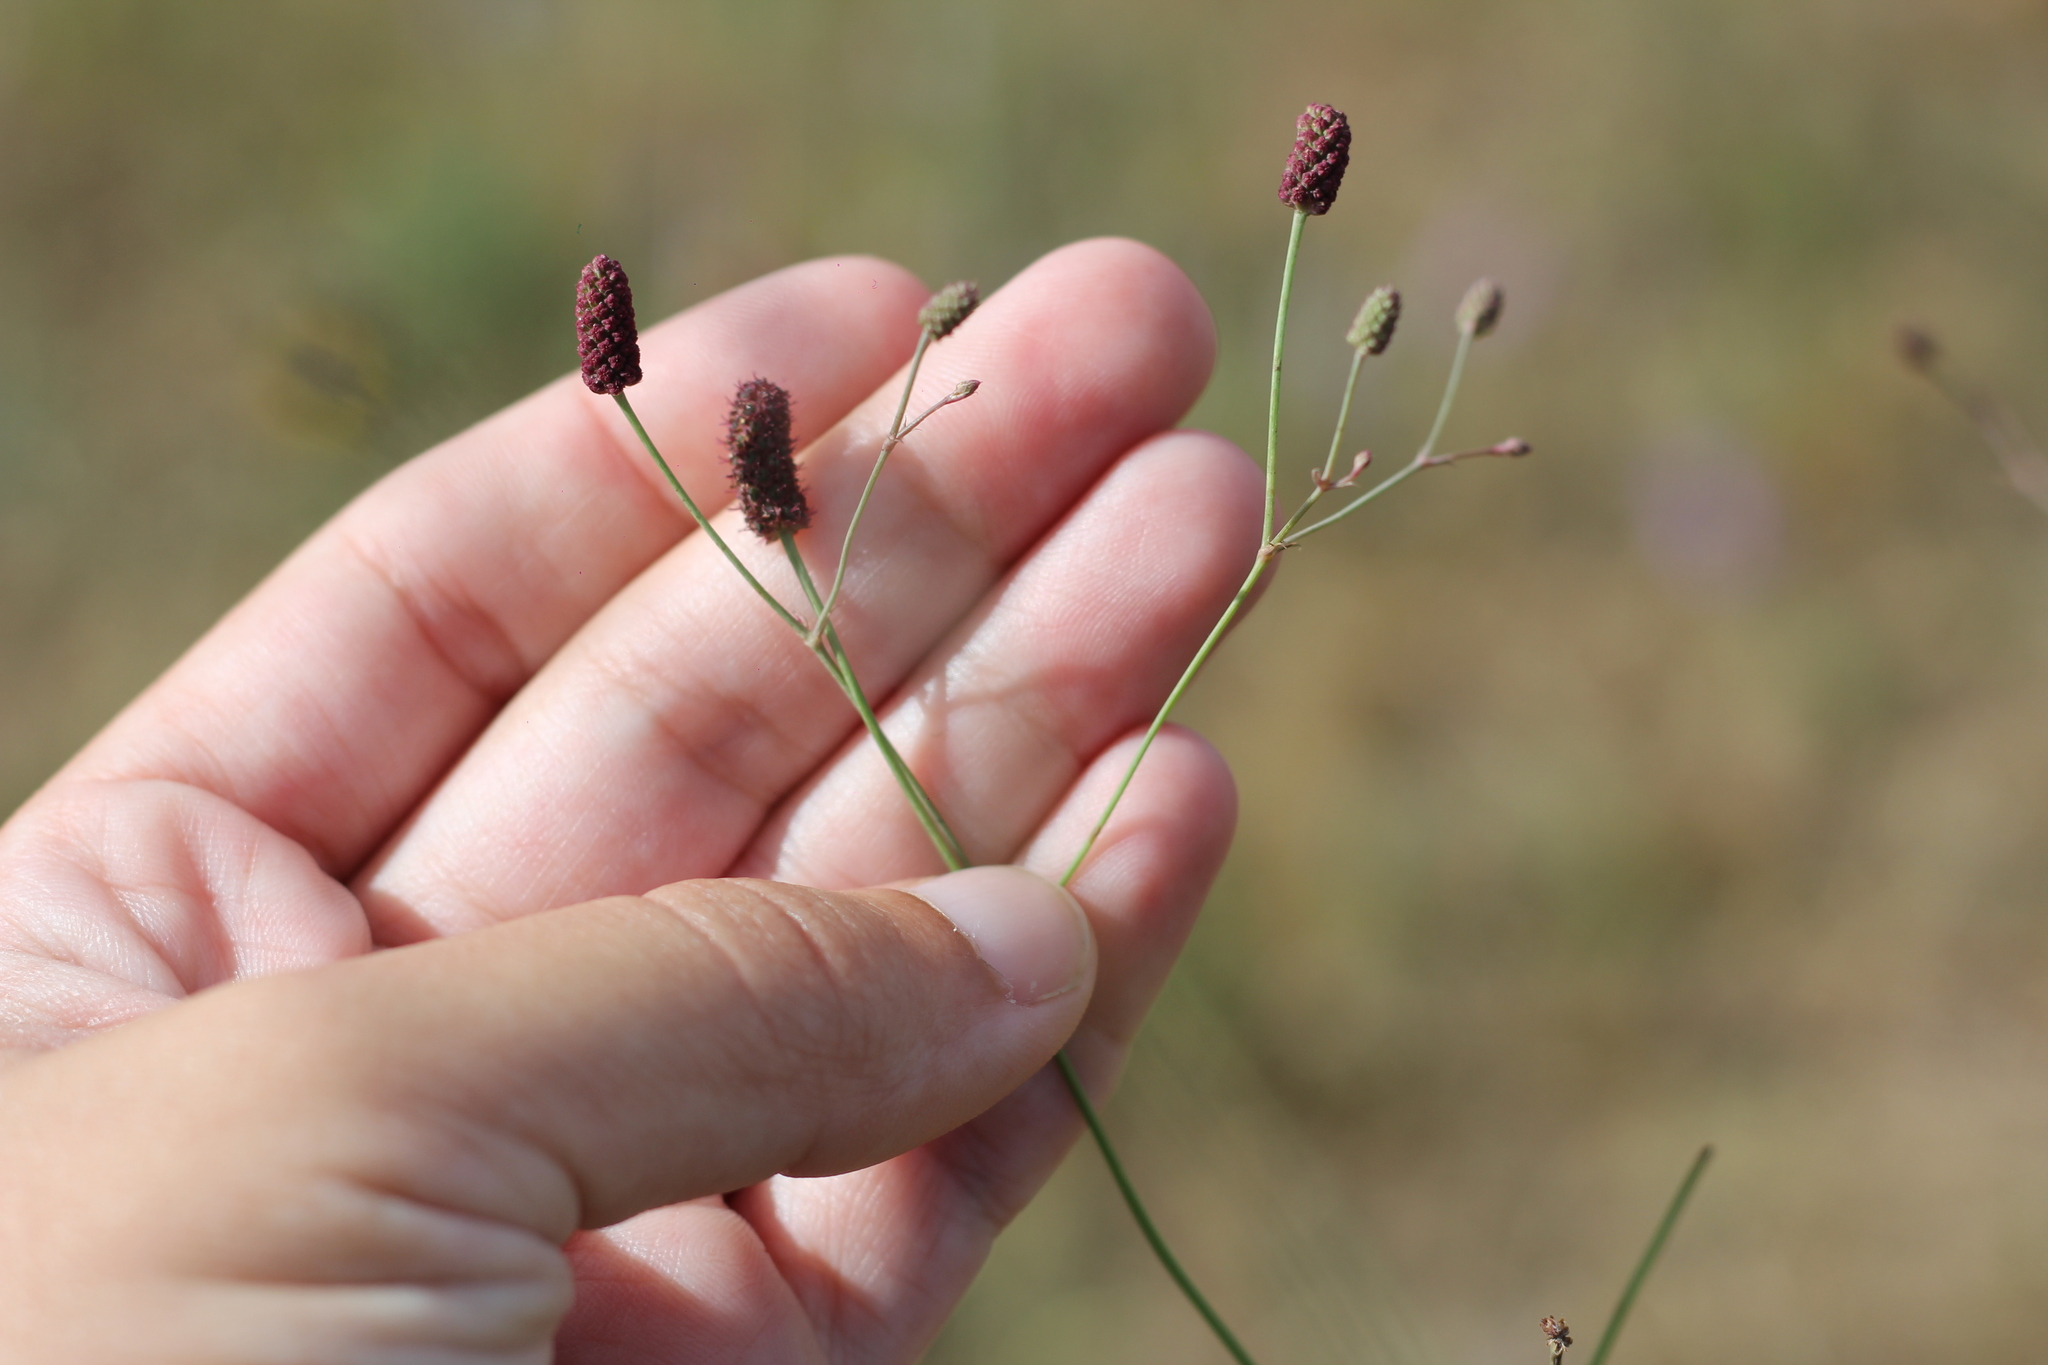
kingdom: Plantae
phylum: Tracheophyta
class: Magnoliopsida
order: Apiales
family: Apiaceae
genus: Eryngium
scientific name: Eryngium ebracteatum
